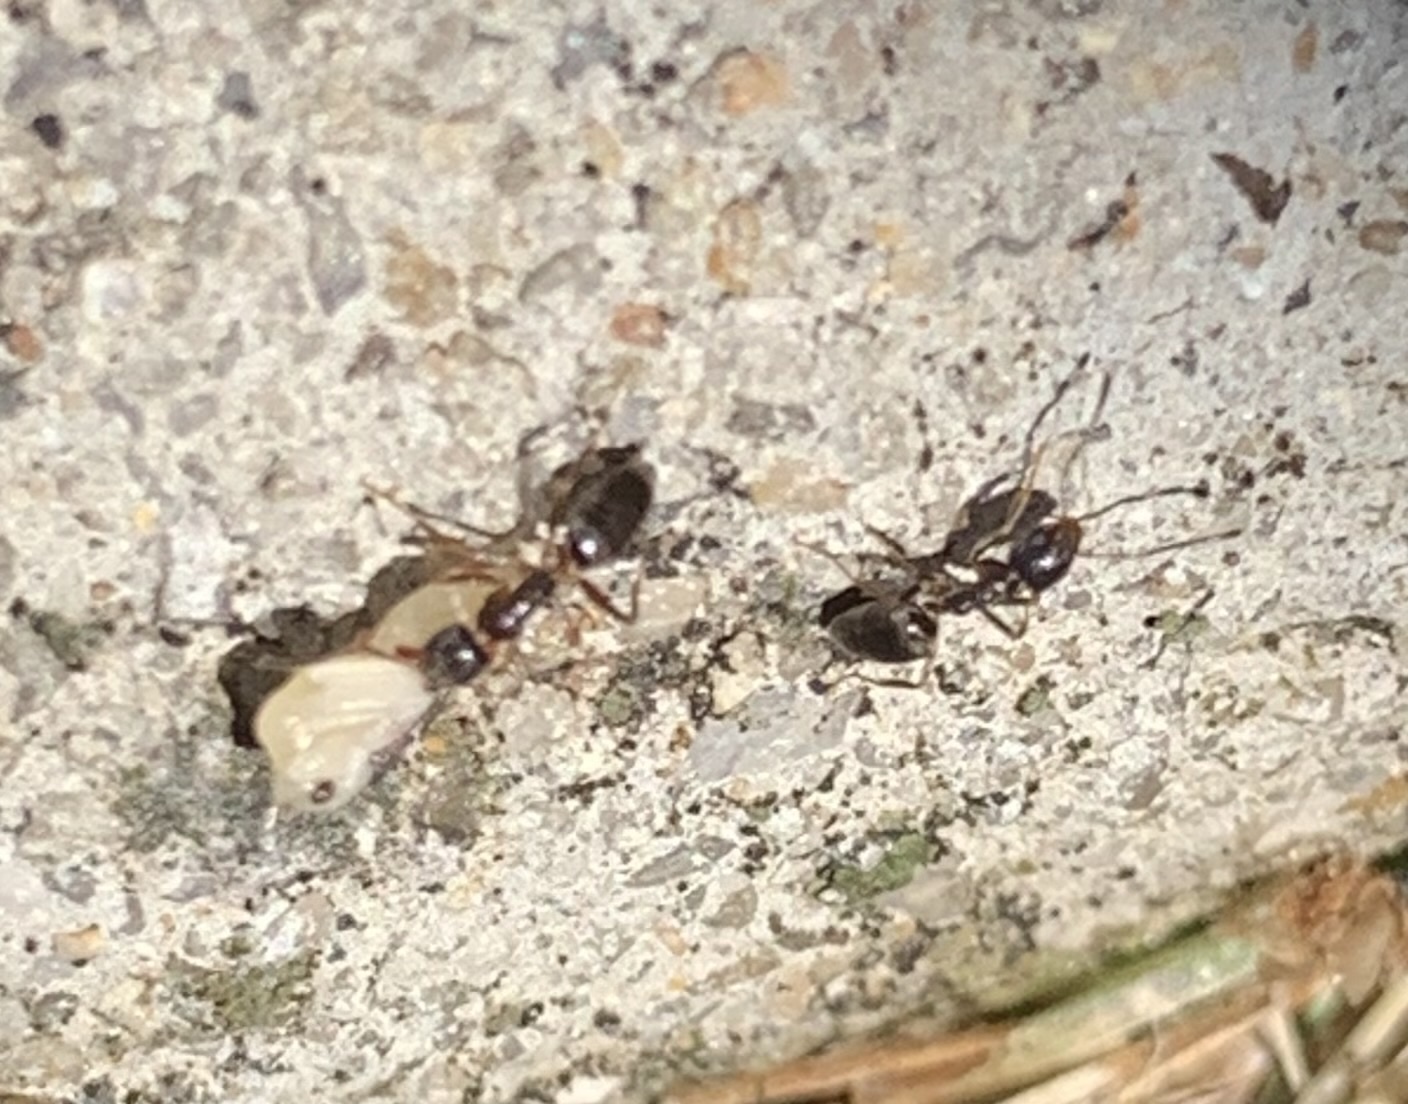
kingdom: Animalia
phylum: Arthropoda
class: Insecta
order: Hymenoptera
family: Formicidae
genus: Tapinoma
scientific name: Tapinoma sessile
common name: Odorous house ant
